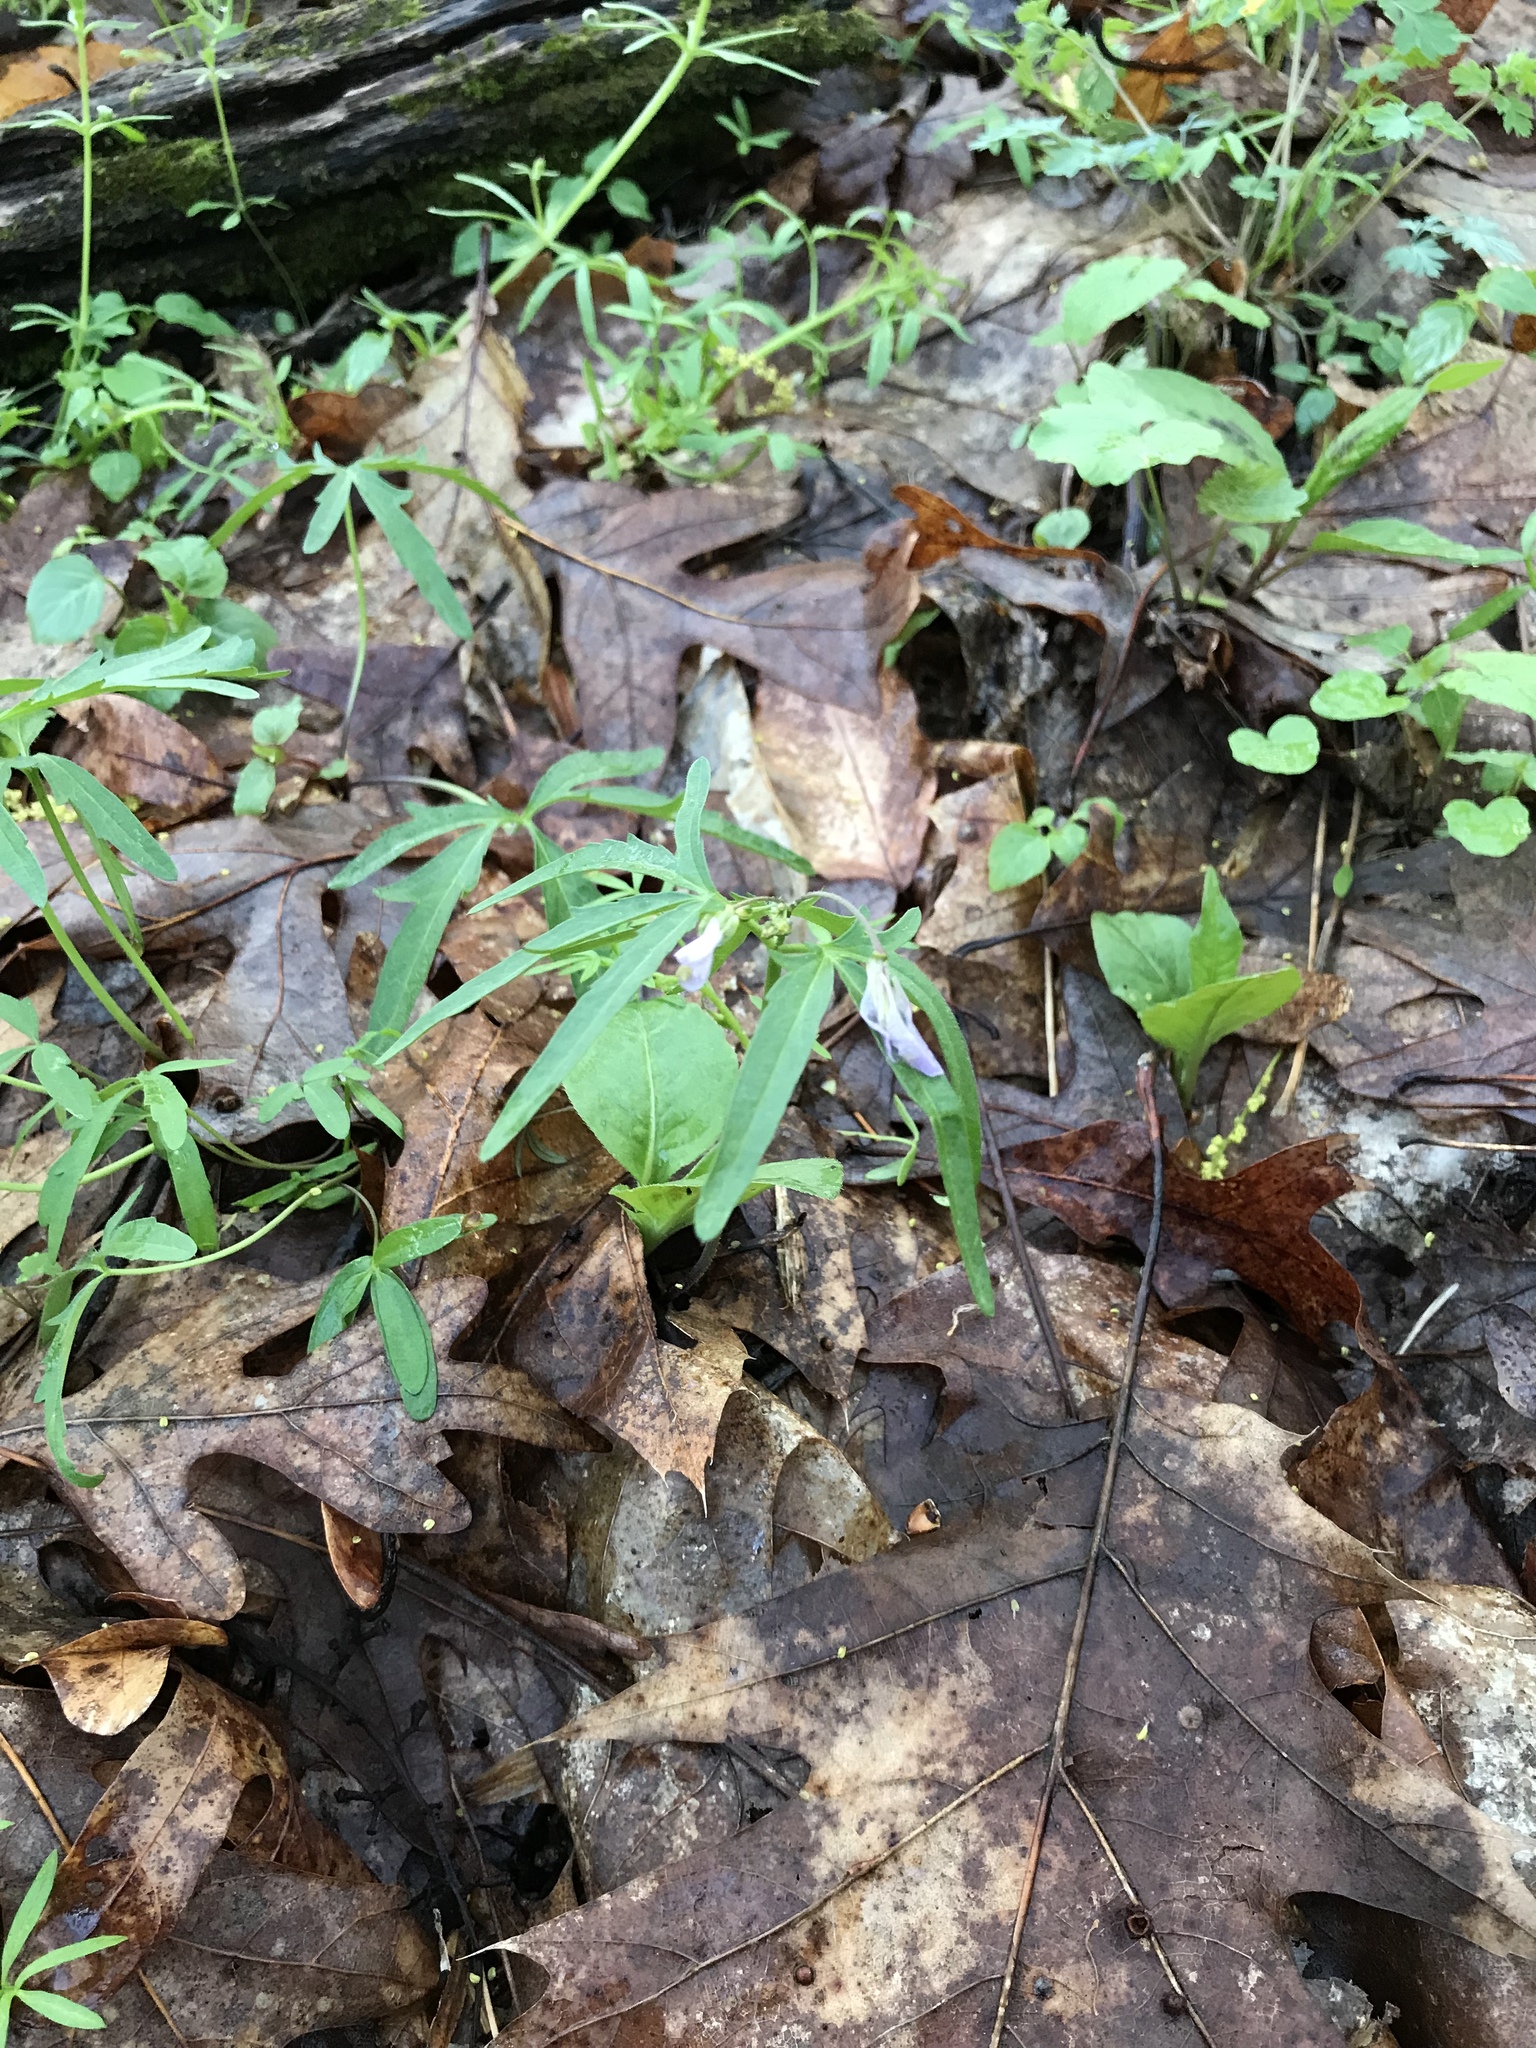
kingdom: Plantae
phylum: Tracheophyta
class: Magnoliopsida
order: Brassicales
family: Brassicaceae
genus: Cardamine
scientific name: Cardamine concatenata
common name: Cut-leaf toothcup
